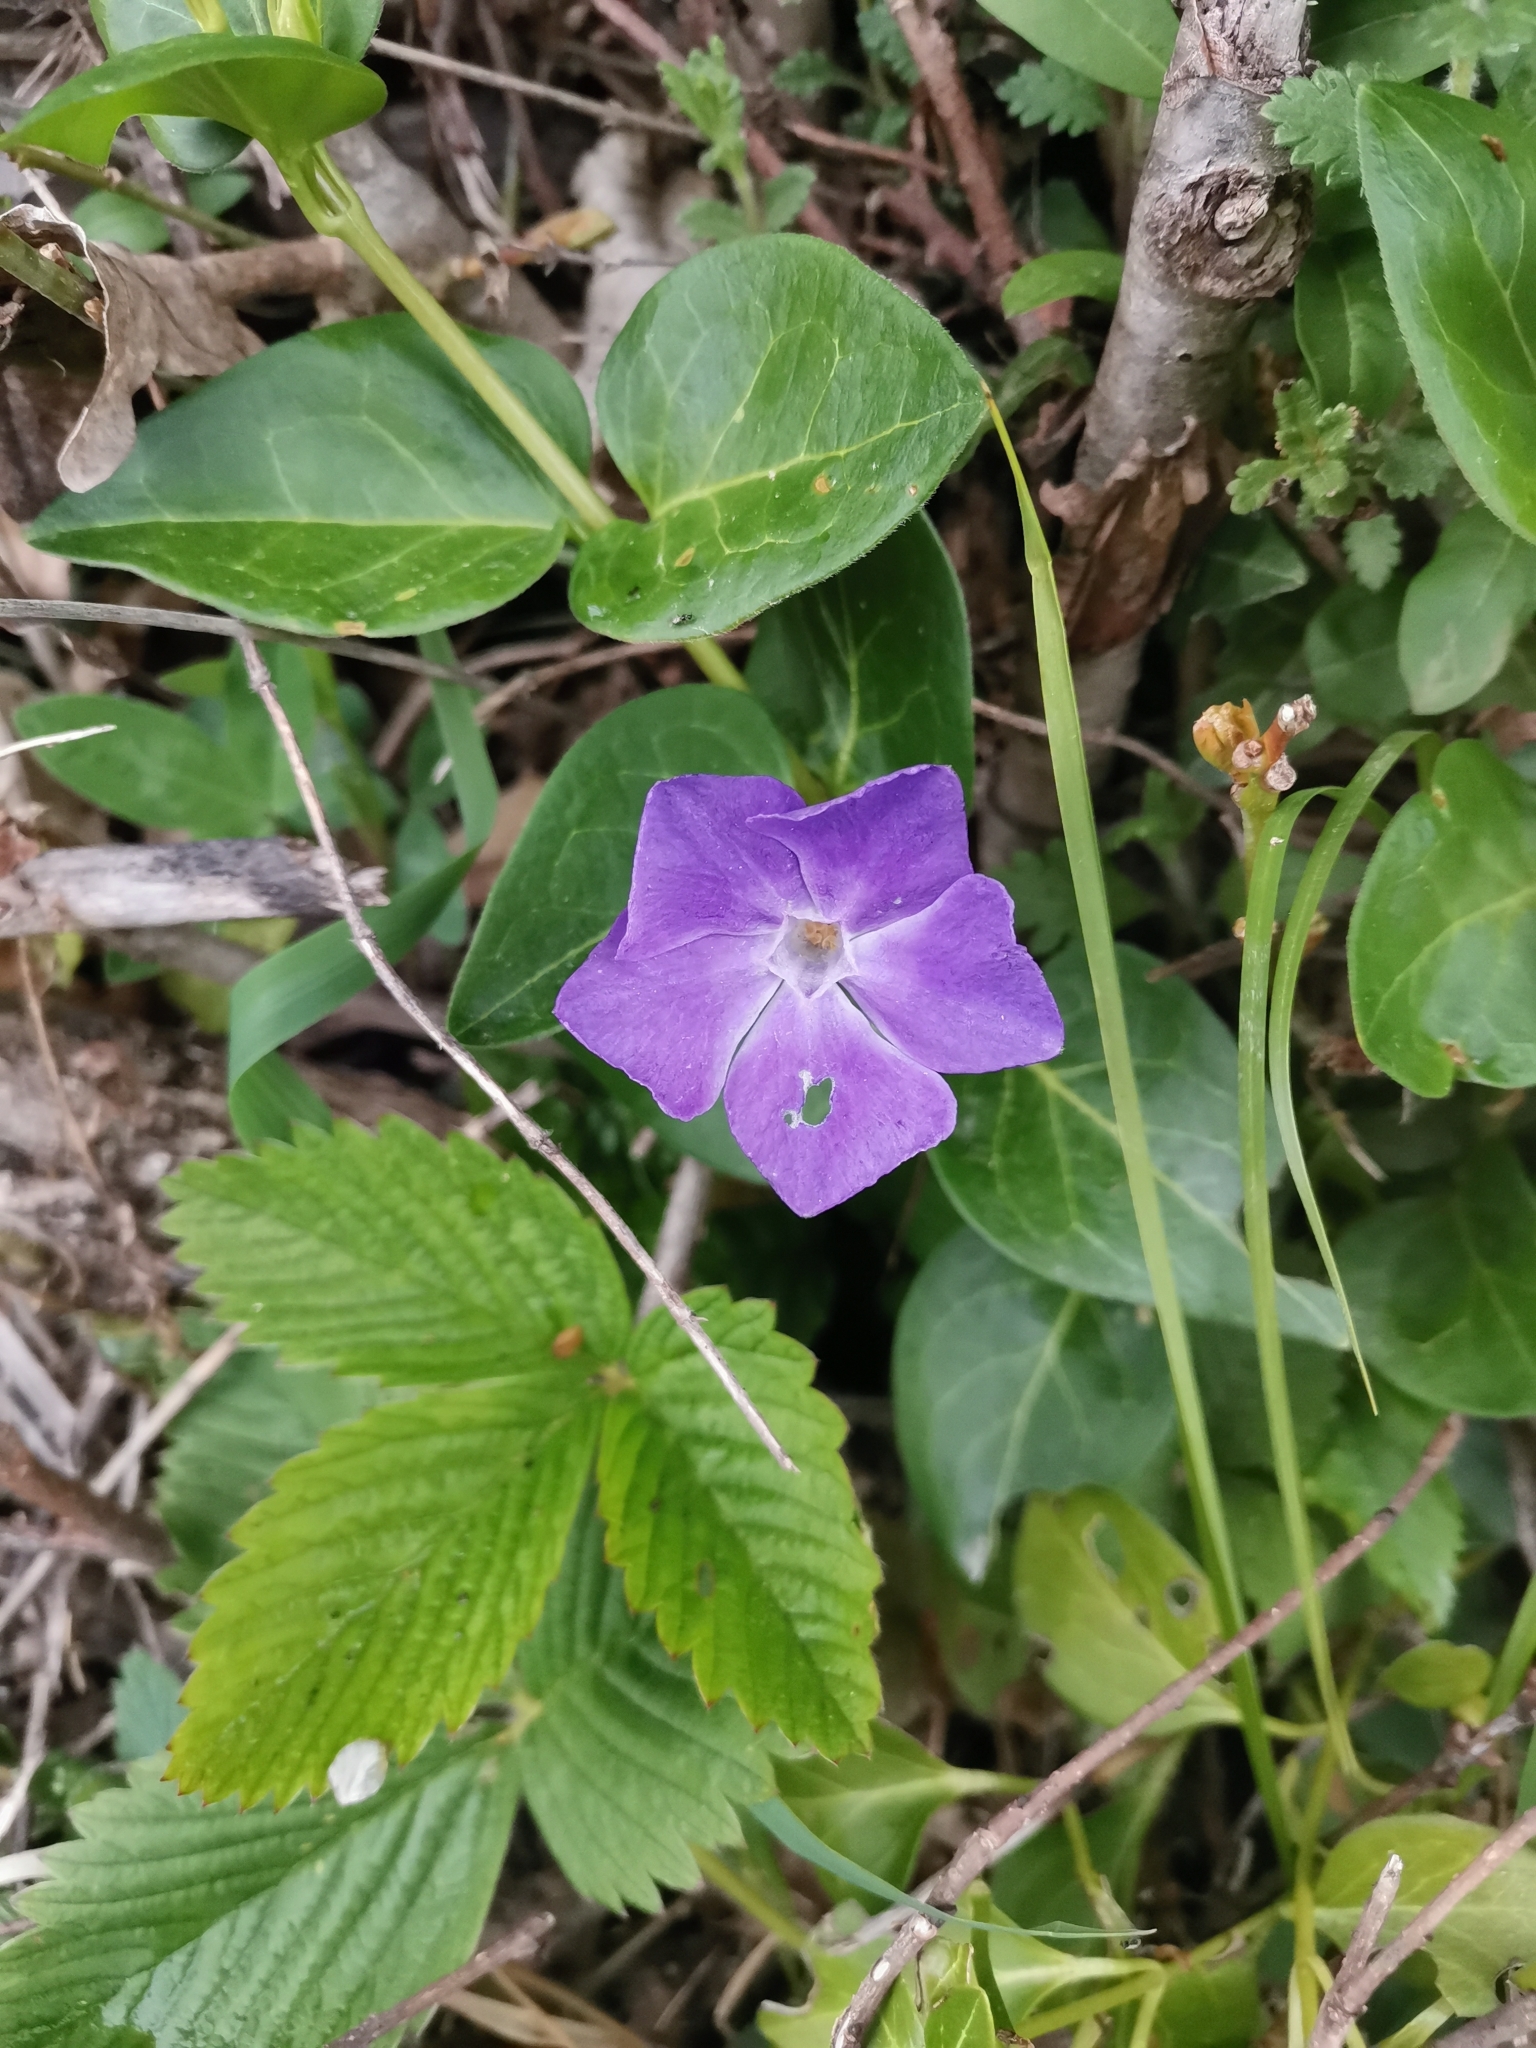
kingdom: Plantae
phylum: Tracheophyta
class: Magnoliopsida
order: Gentianales
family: Apocynaceae
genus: Vinca
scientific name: Vinca major
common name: Greater periwinkle
